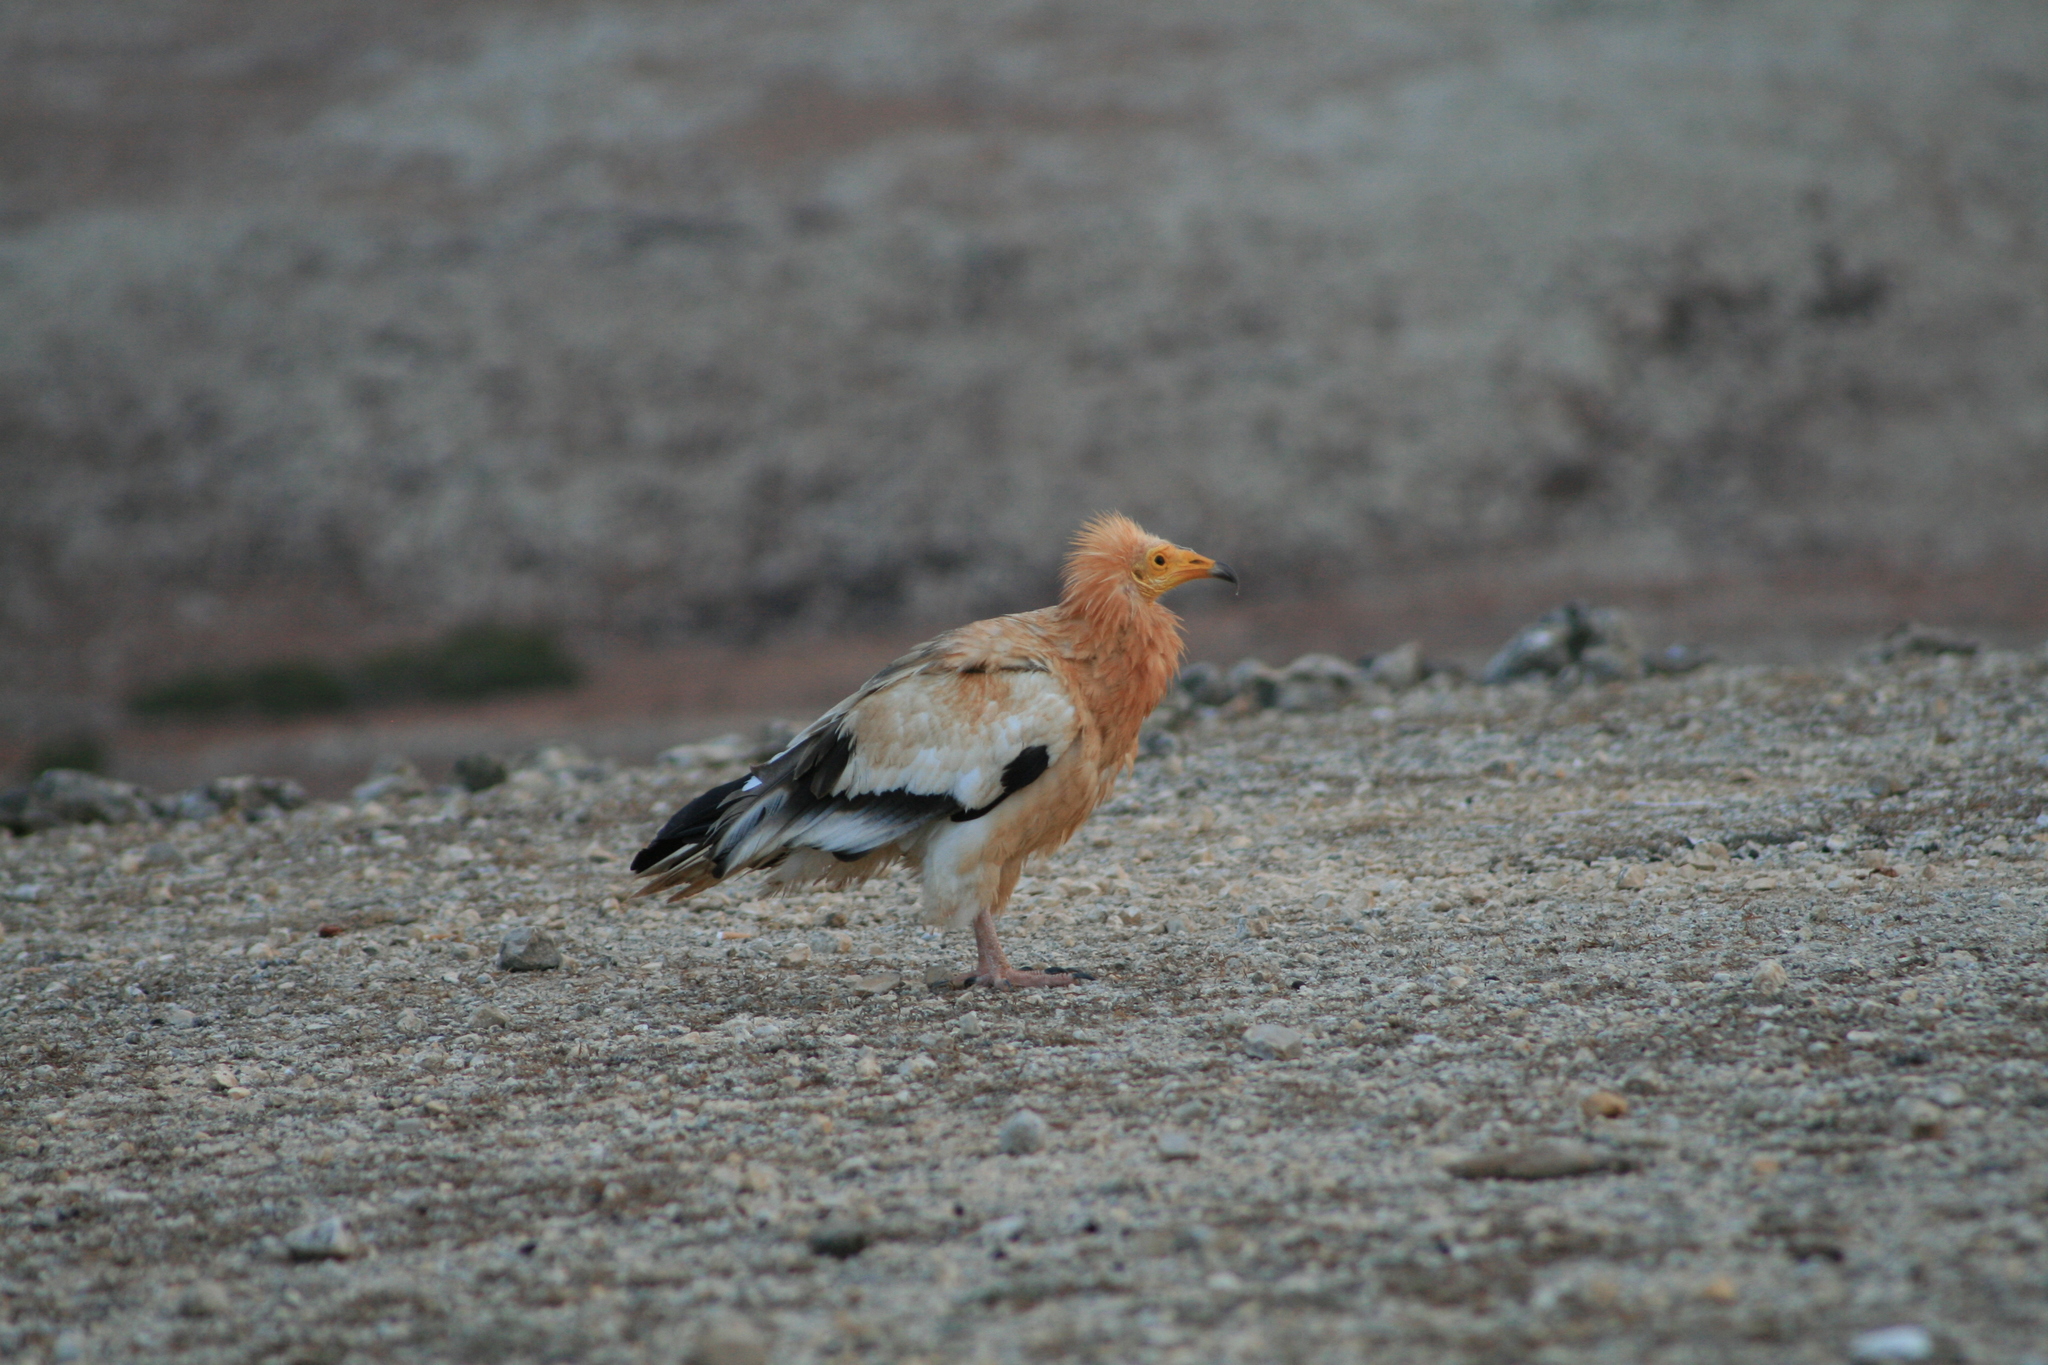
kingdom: Animalia
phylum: Chordata
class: Aves
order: Accipitriformes
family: Accipitridae
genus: Neophron
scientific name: Neophron percnopterus
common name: Egyptian vulture
